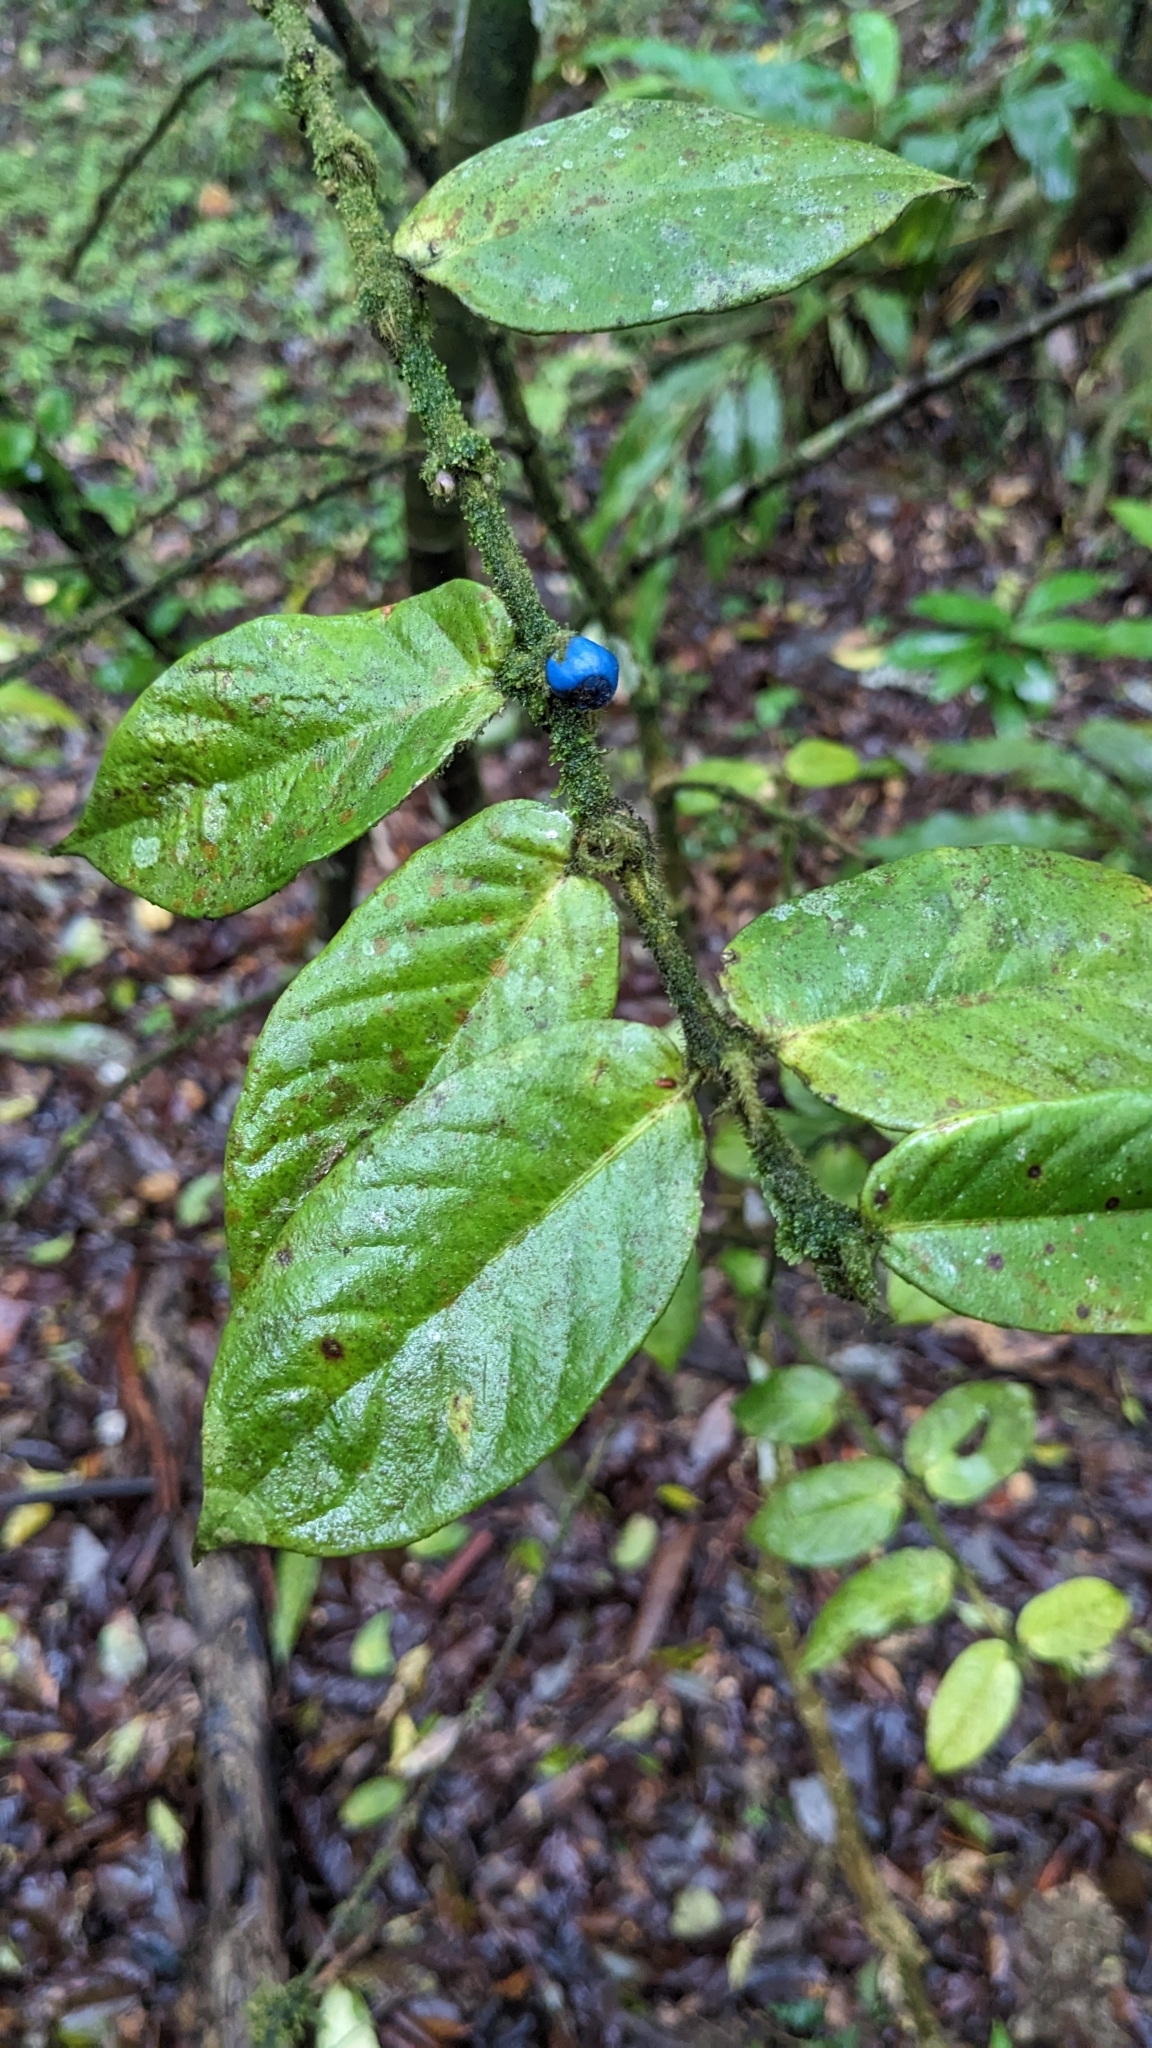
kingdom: Plantae
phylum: Tracheophyta
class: Magnoliopsida
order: Gentianales
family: Rubiaceae
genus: Lasianthus
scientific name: Lasianthus attenuatus
